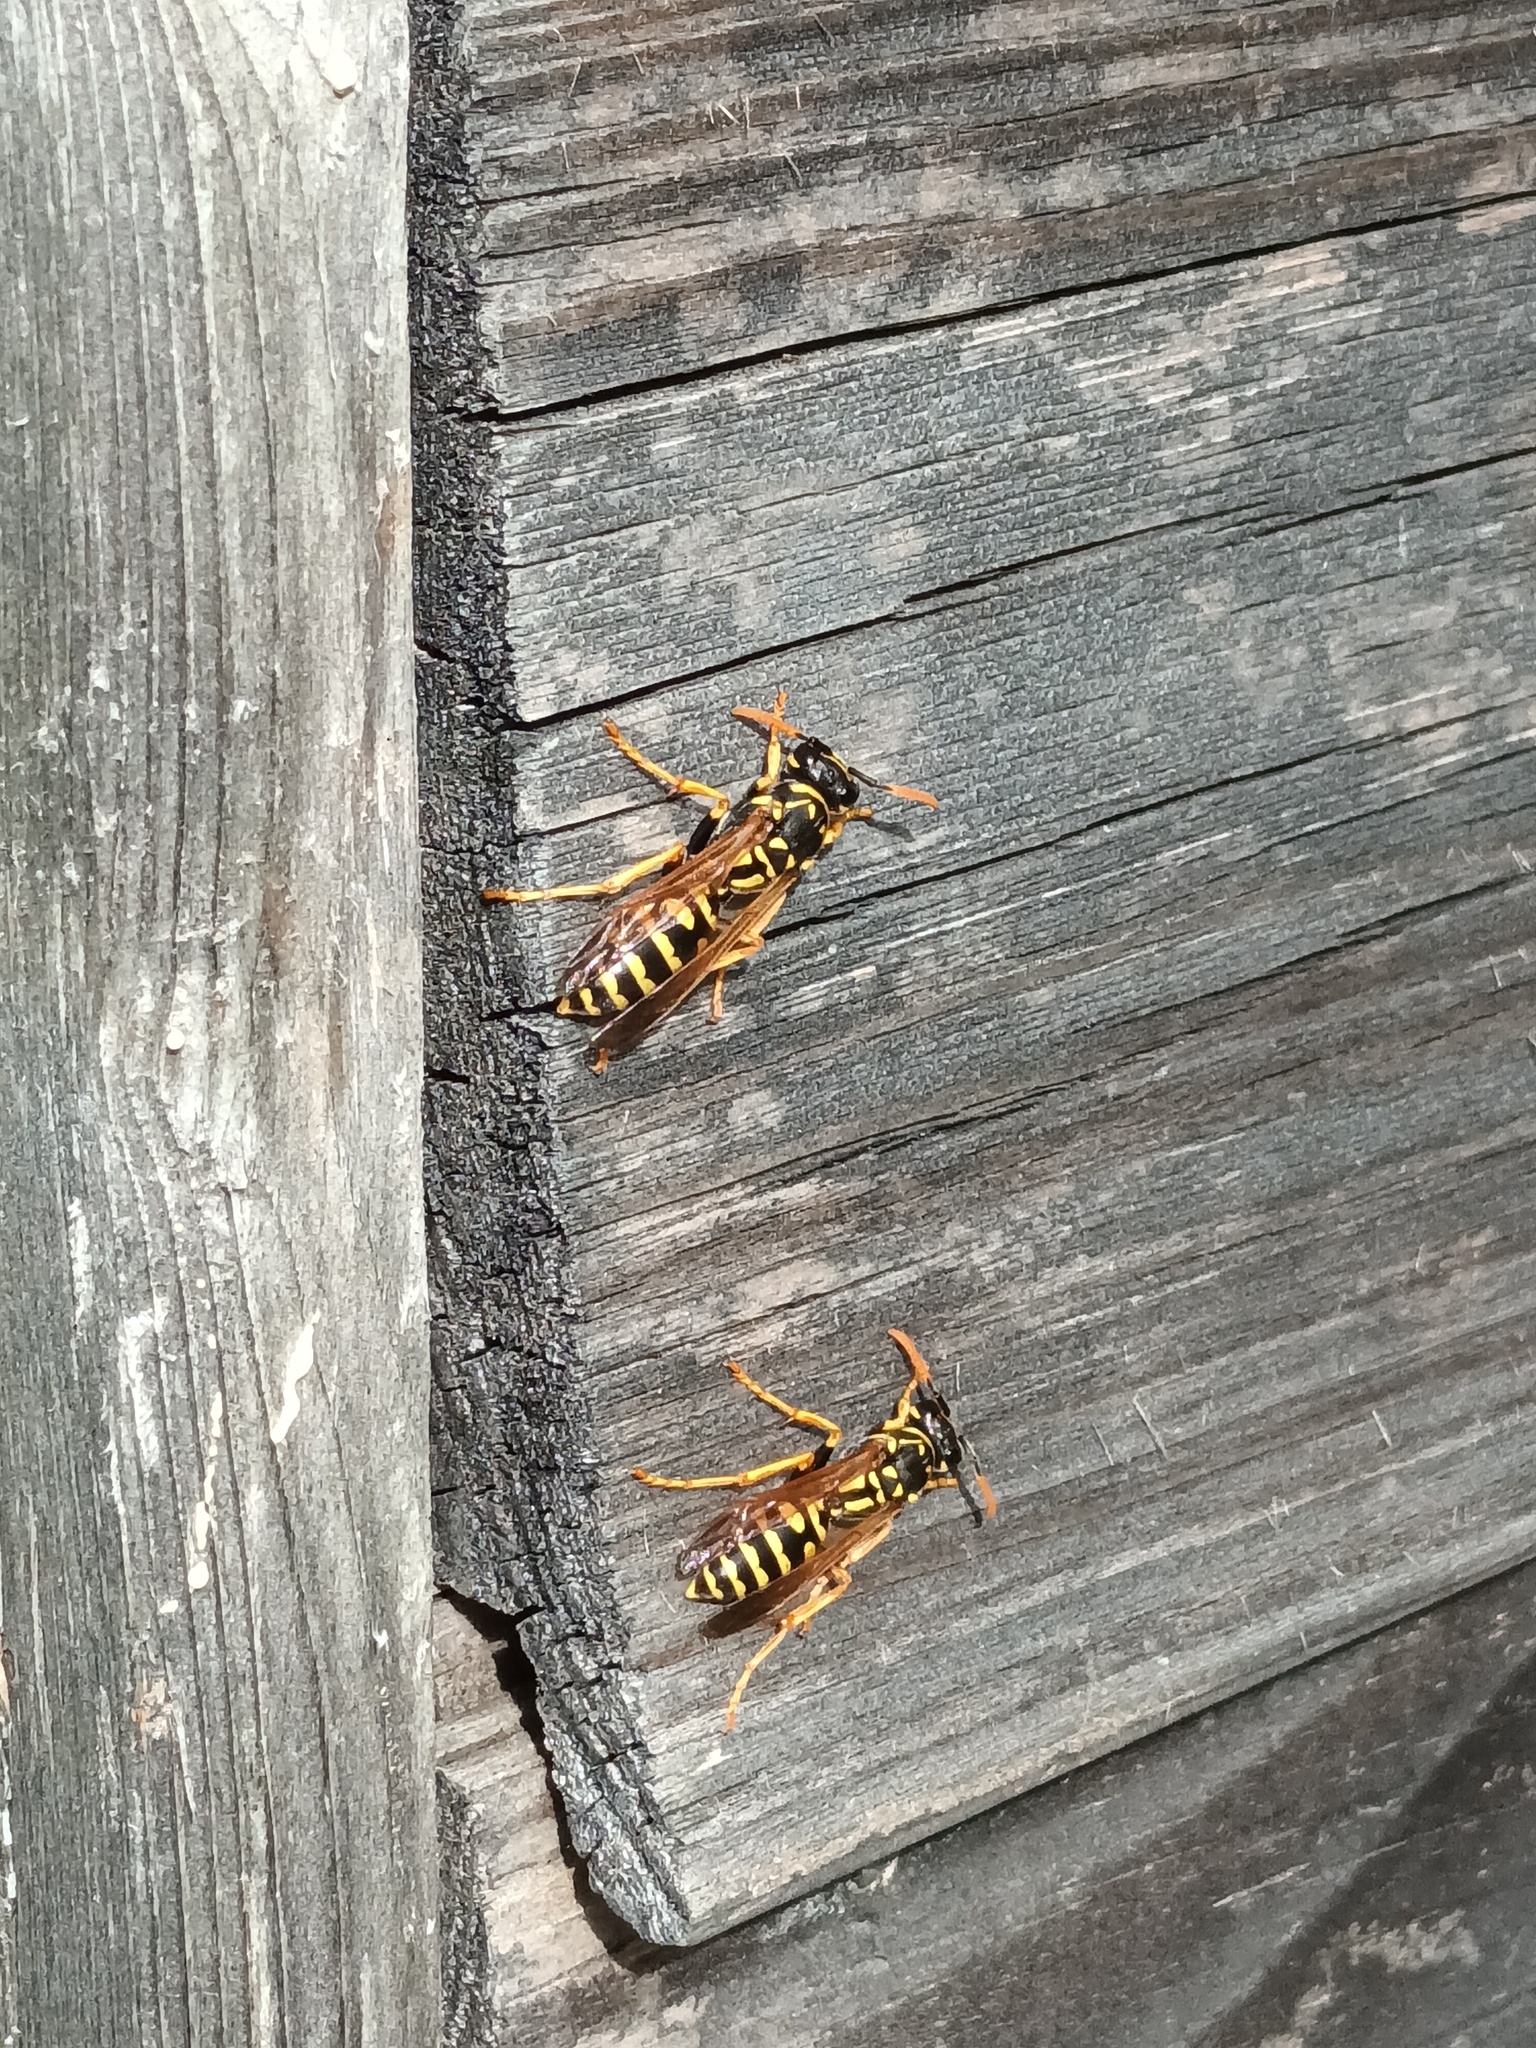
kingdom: Animalia
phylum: Arthropoda
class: Insecta
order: Hymenoptera
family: Eumenidae
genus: Polistes
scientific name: Polistes dominula
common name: Paper wasp
